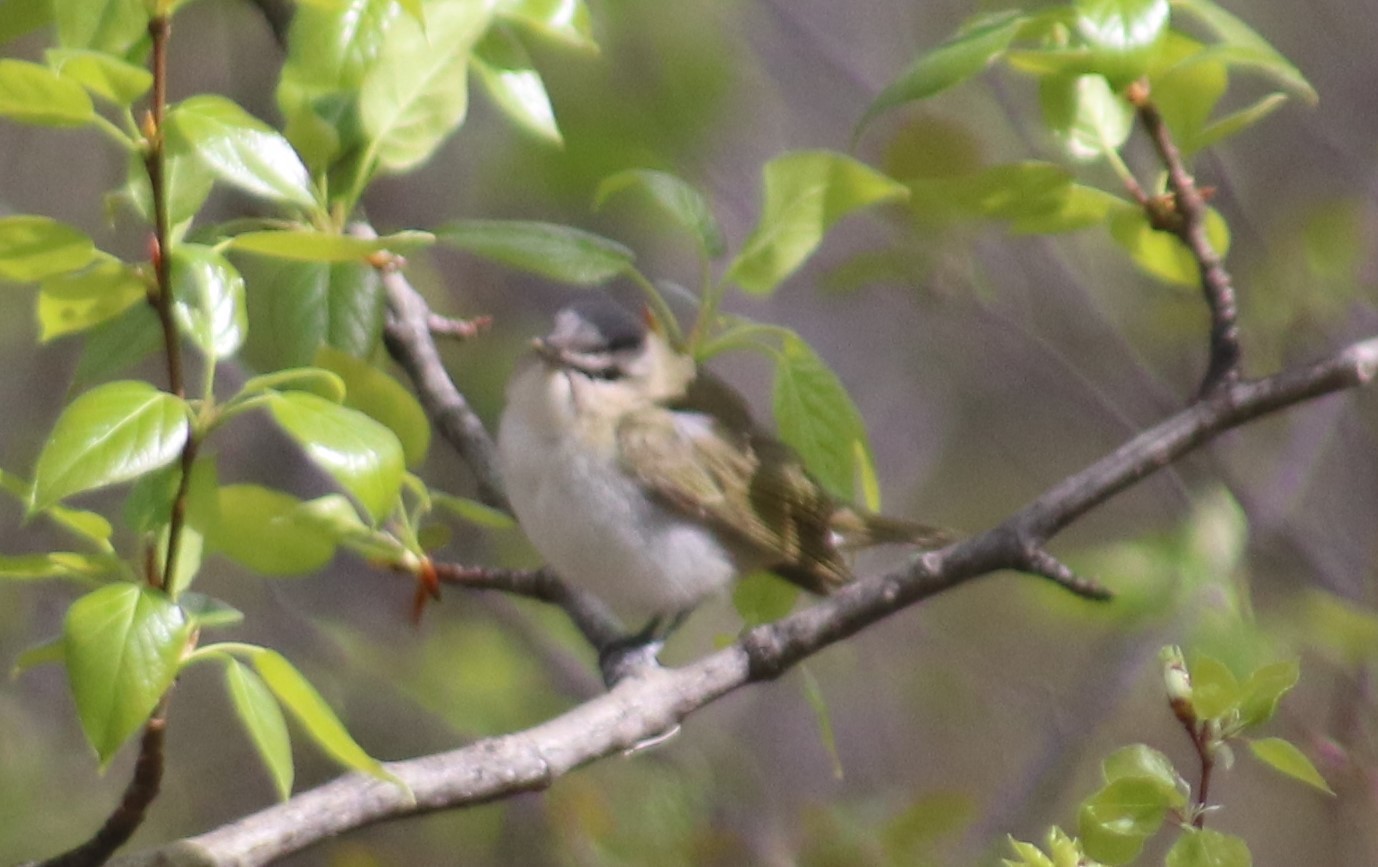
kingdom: Animalia
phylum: Chordata
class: Aves
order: Passeriformes
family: Vireonidae
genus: Vireo
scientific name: Vireo olivaceus
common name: Red-eyed vireo
